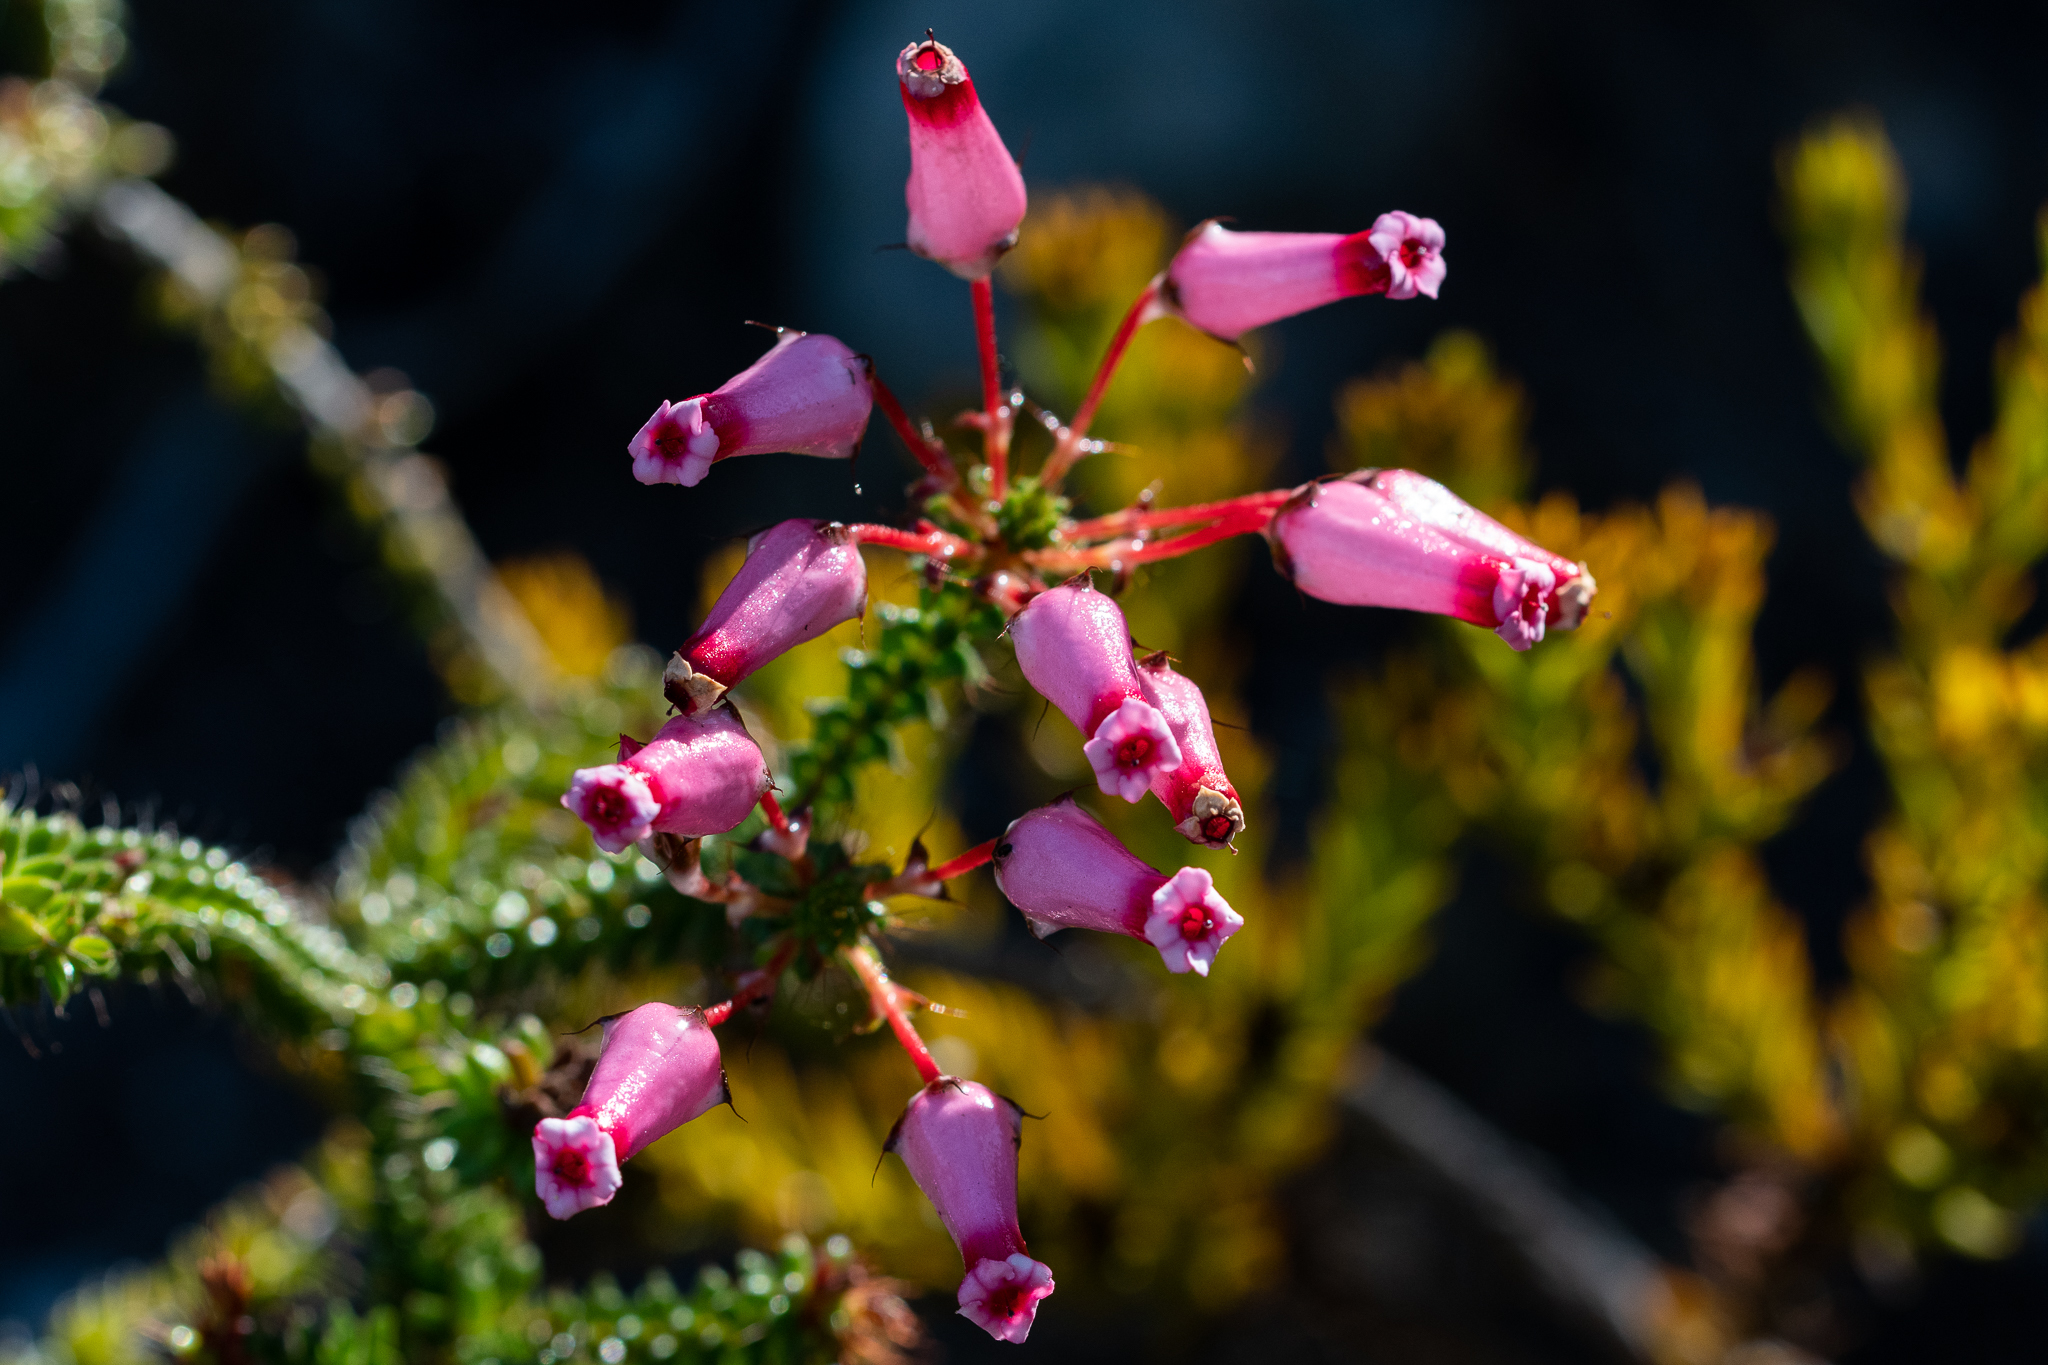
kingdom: Plantae
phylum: Tracheophyta
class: Magnoliopsida
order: Ericales
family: Ericaceae
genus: Erica
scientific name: Erica retorta
